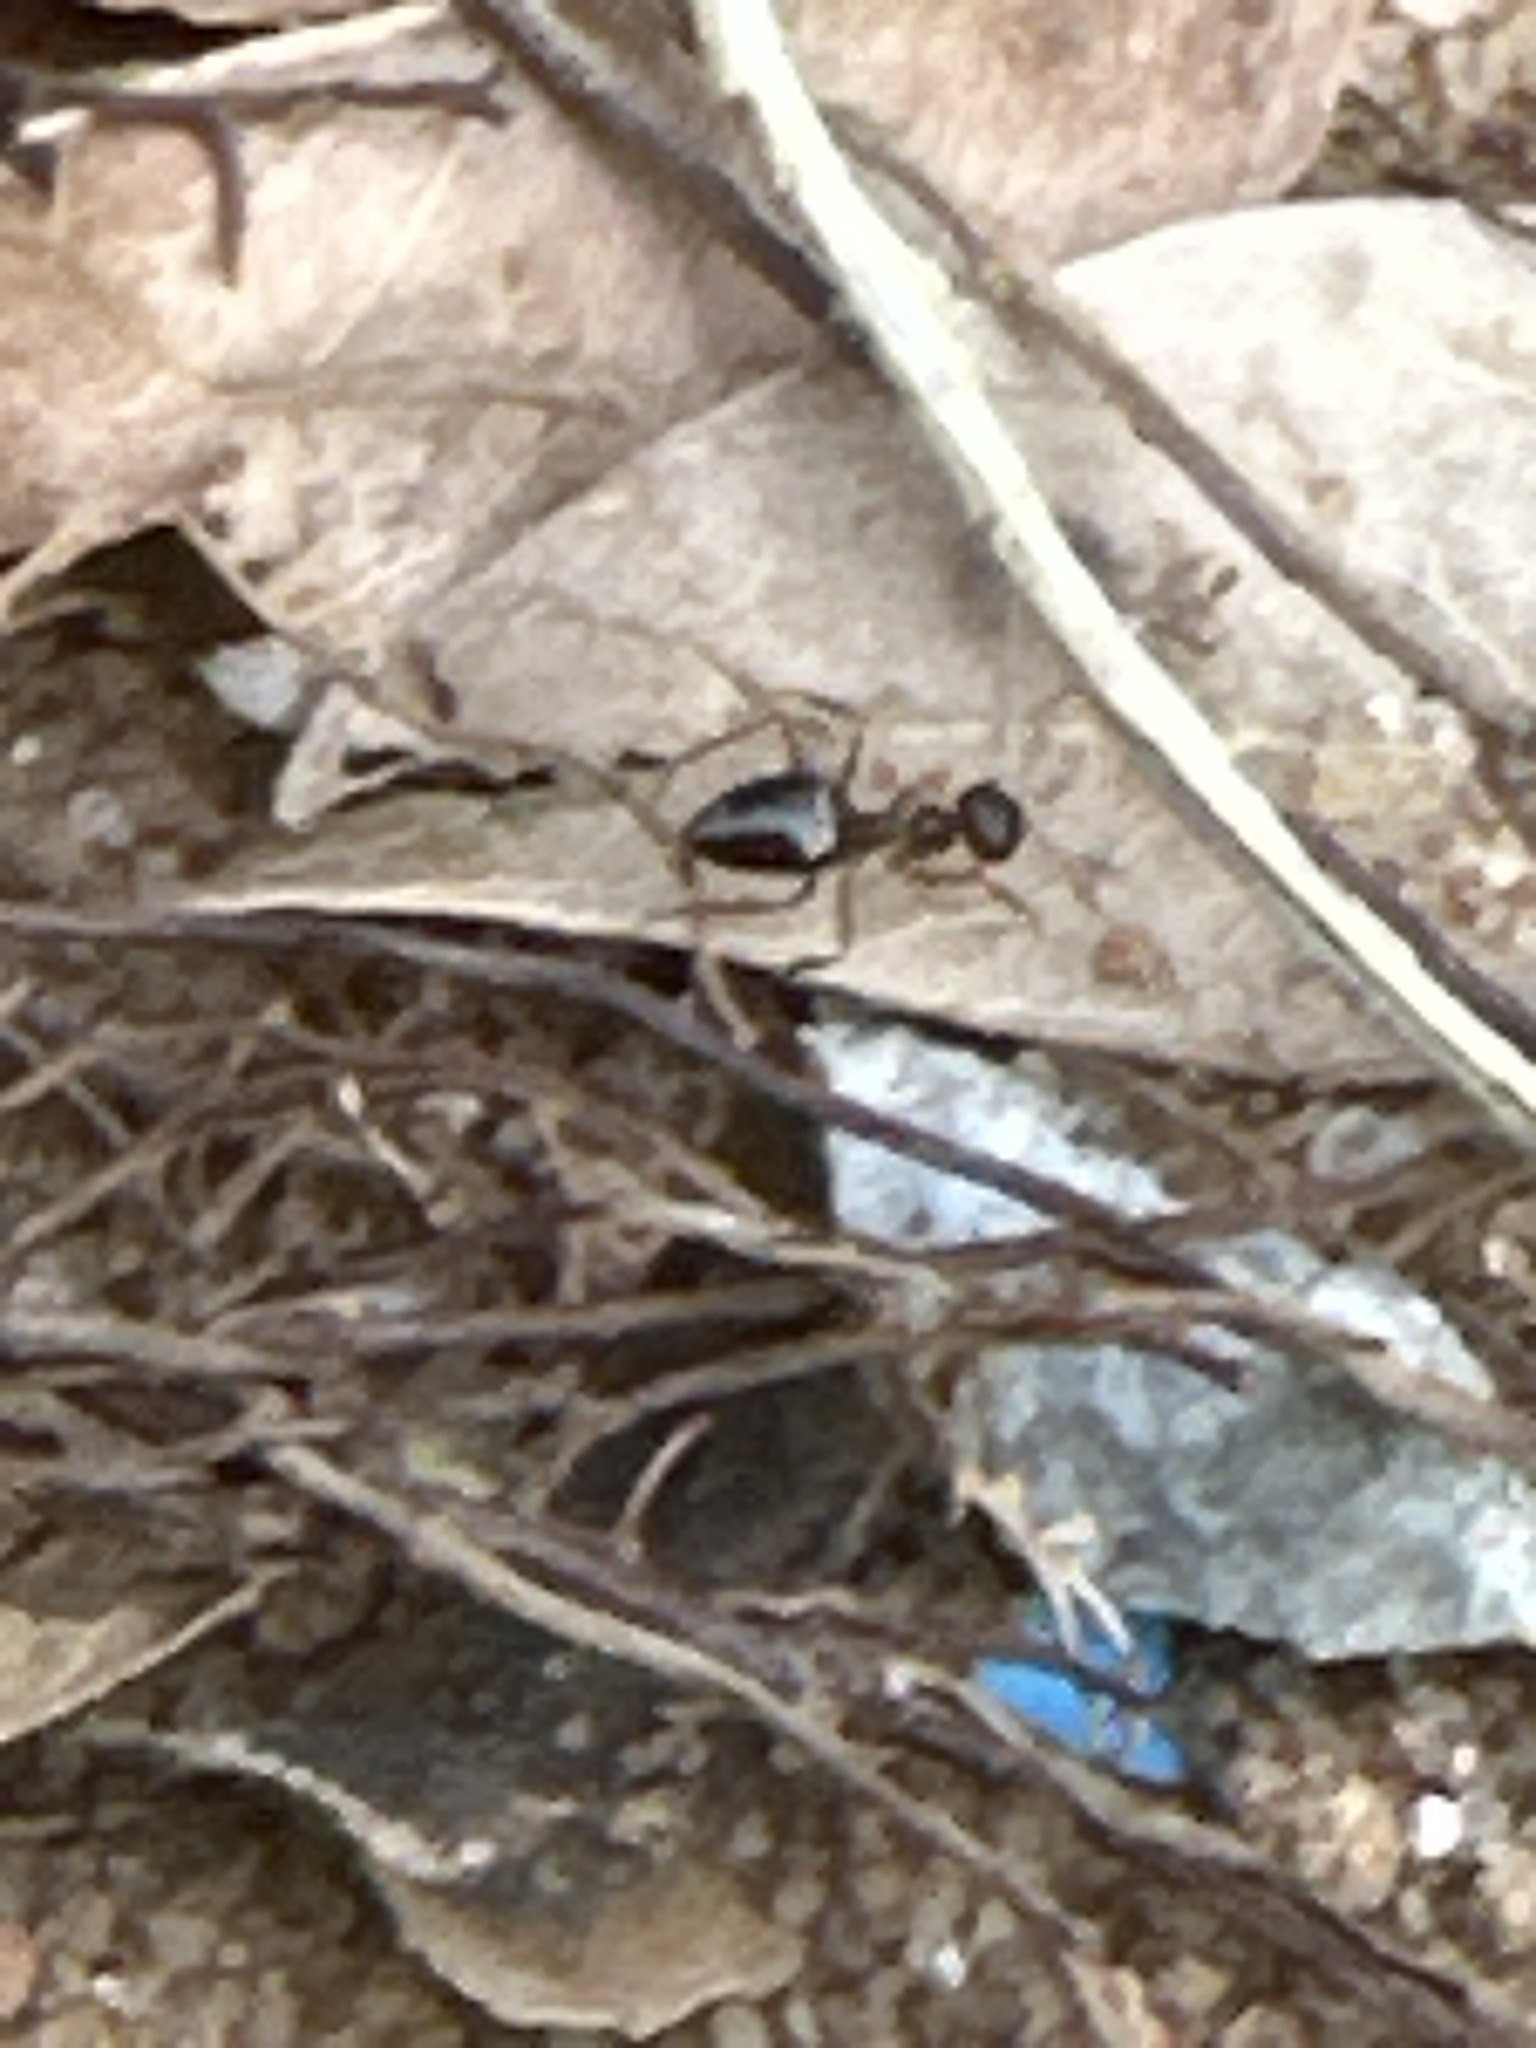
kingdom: Animalia
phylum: Arthropoda
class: Insecta
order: Hymenoptera
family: Formicidae
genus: Prenolepis
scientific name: Prenolepis imparis
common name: Small honey ant
